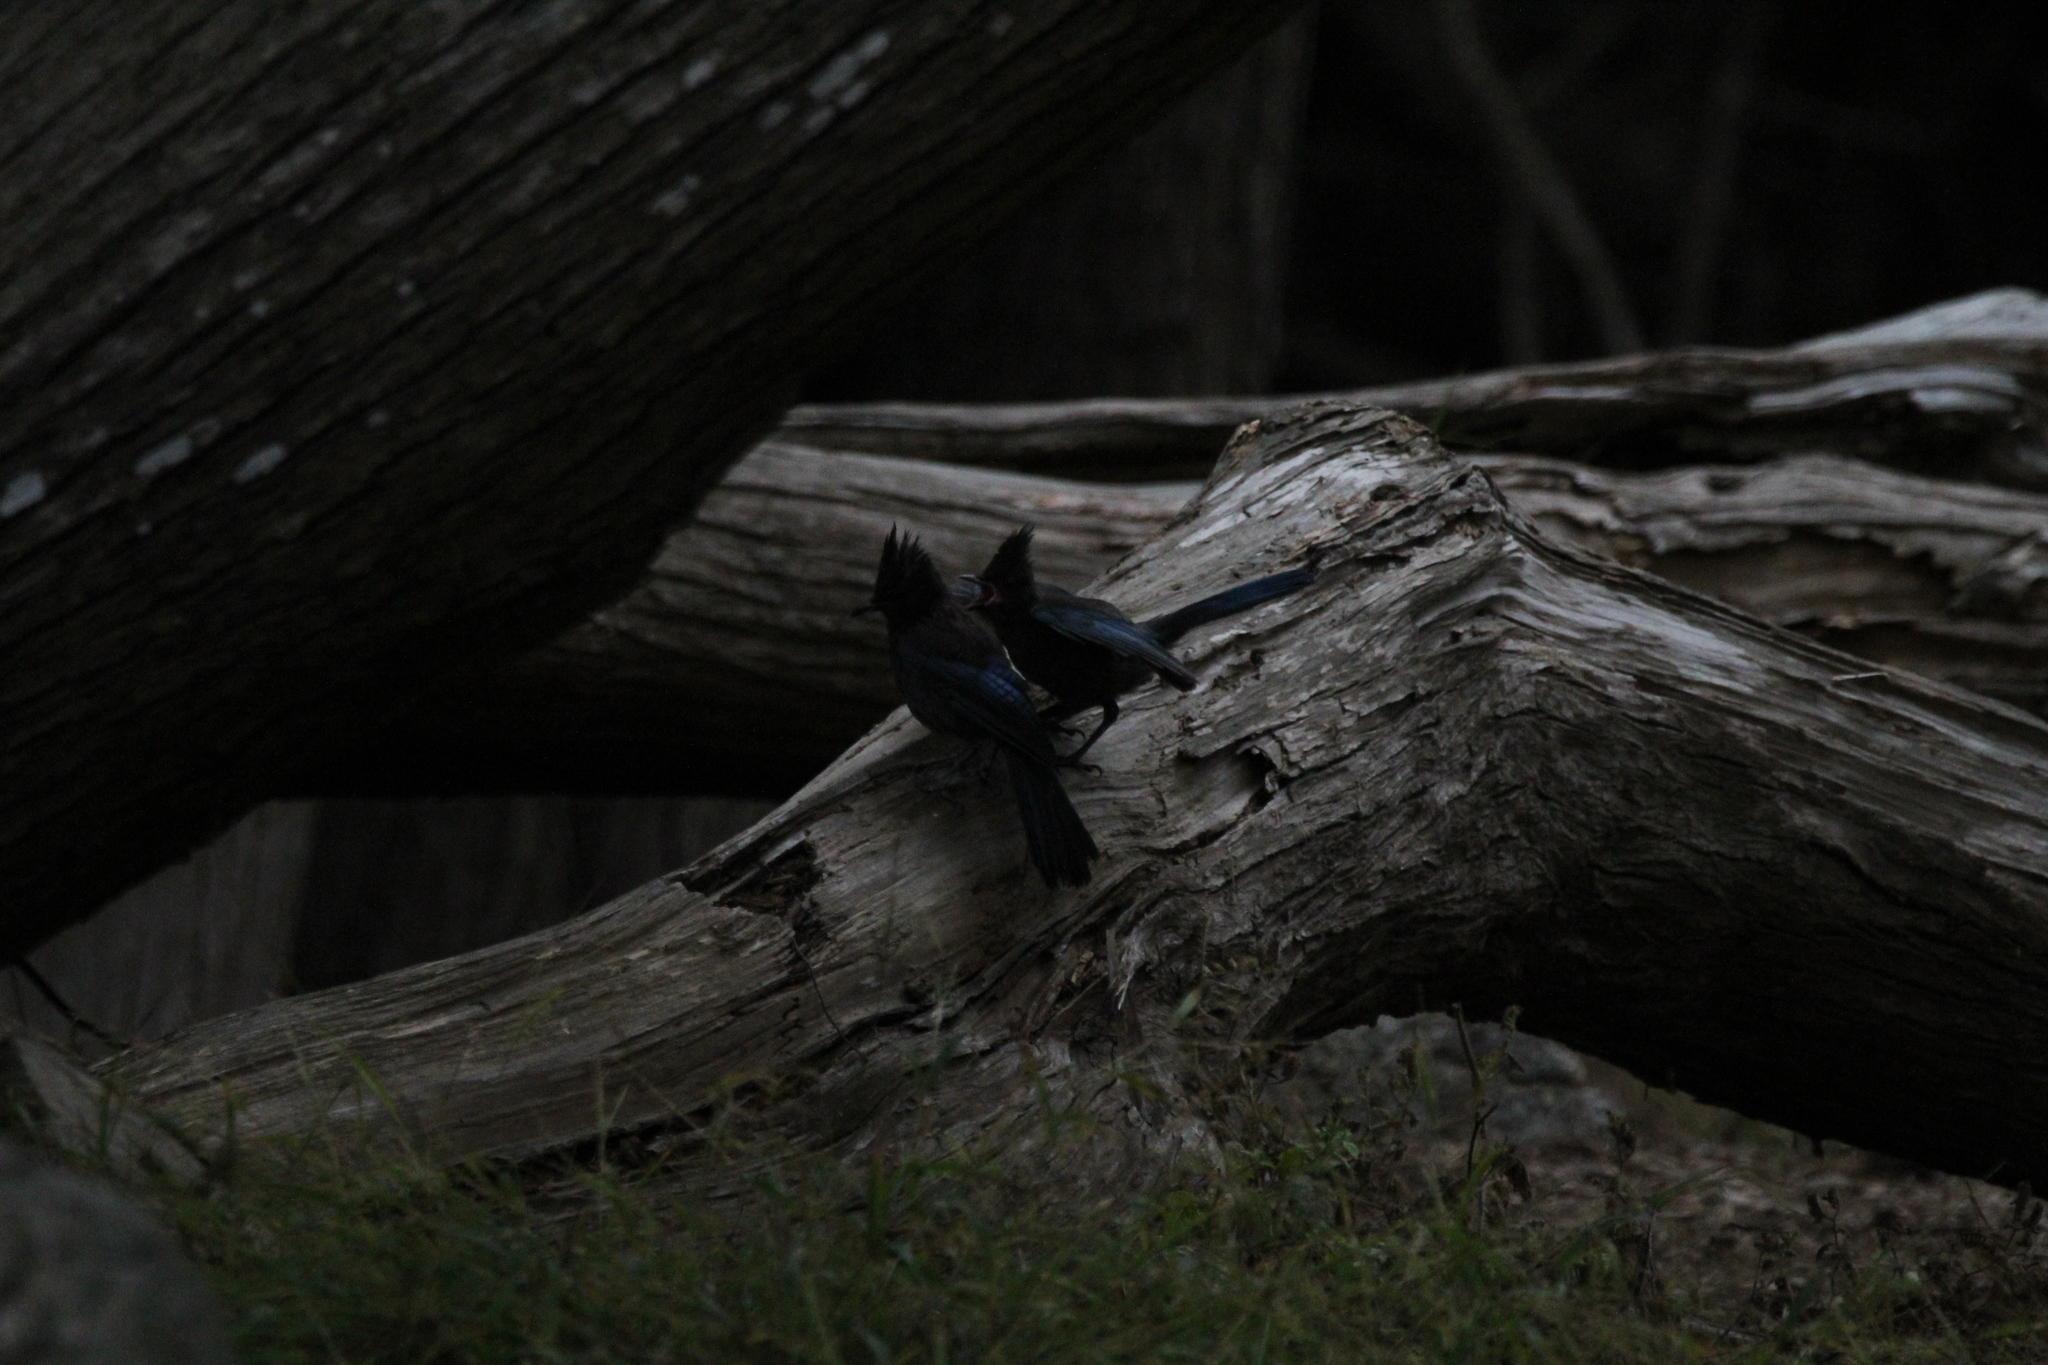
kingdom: Animalia
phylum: Chordata
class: Aves
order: Passeriformes
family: Corvidae
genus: Cyanocitta
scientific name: Cyanocitta stelleri
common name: Steller's jay
